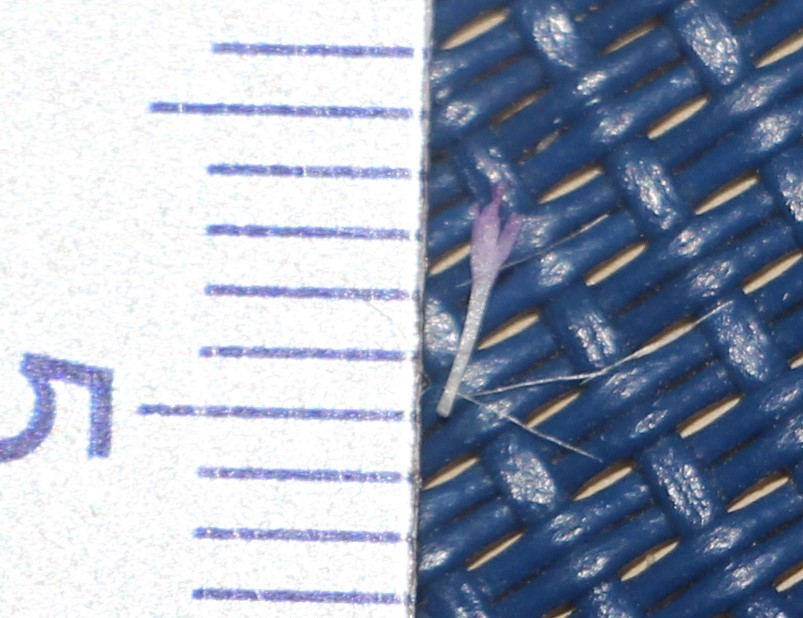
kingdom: Plantae
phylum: Tracheophyta
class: Magnoliopsida
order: Asterales
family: Asteraceae
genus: Cyanthillium
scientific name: Cyanthillium cinereum
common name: Little ironweed
